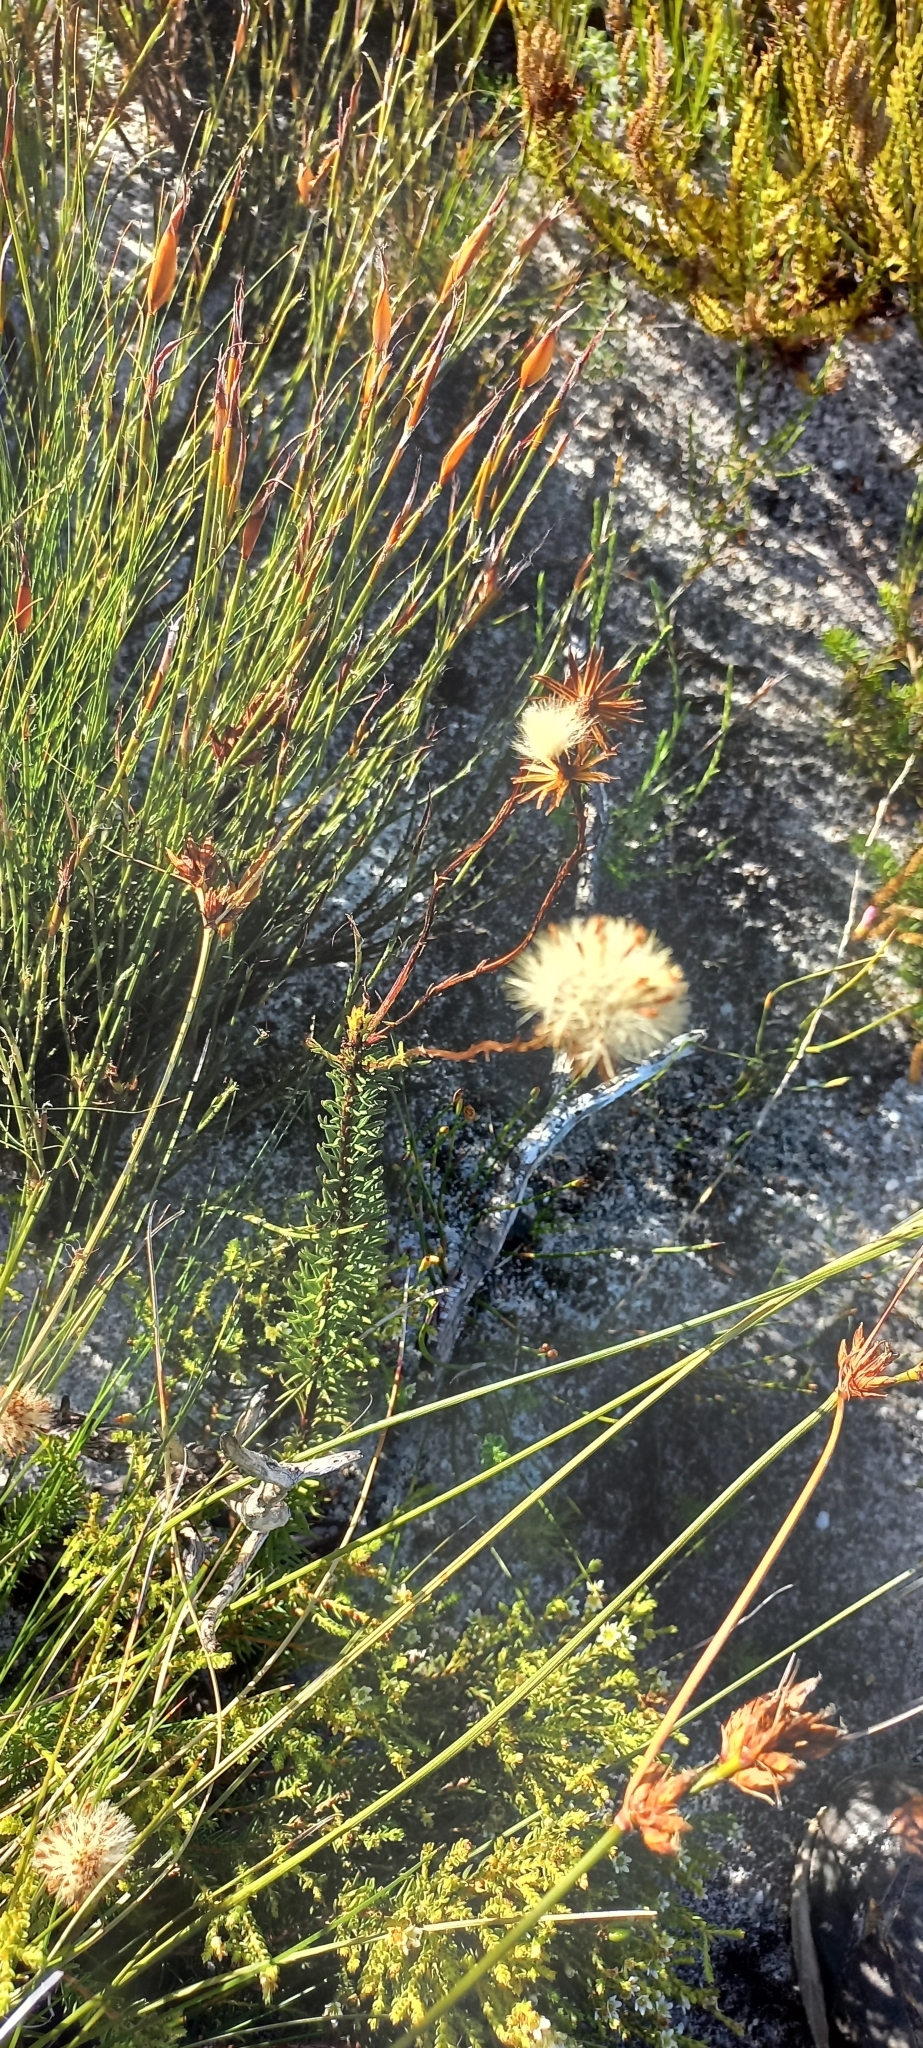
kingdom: Plantae
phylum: Tracheophyta
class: Magnoliopsida
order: Asterales
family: Asteraceae
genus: Senecio
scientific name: Senecio triqueter
